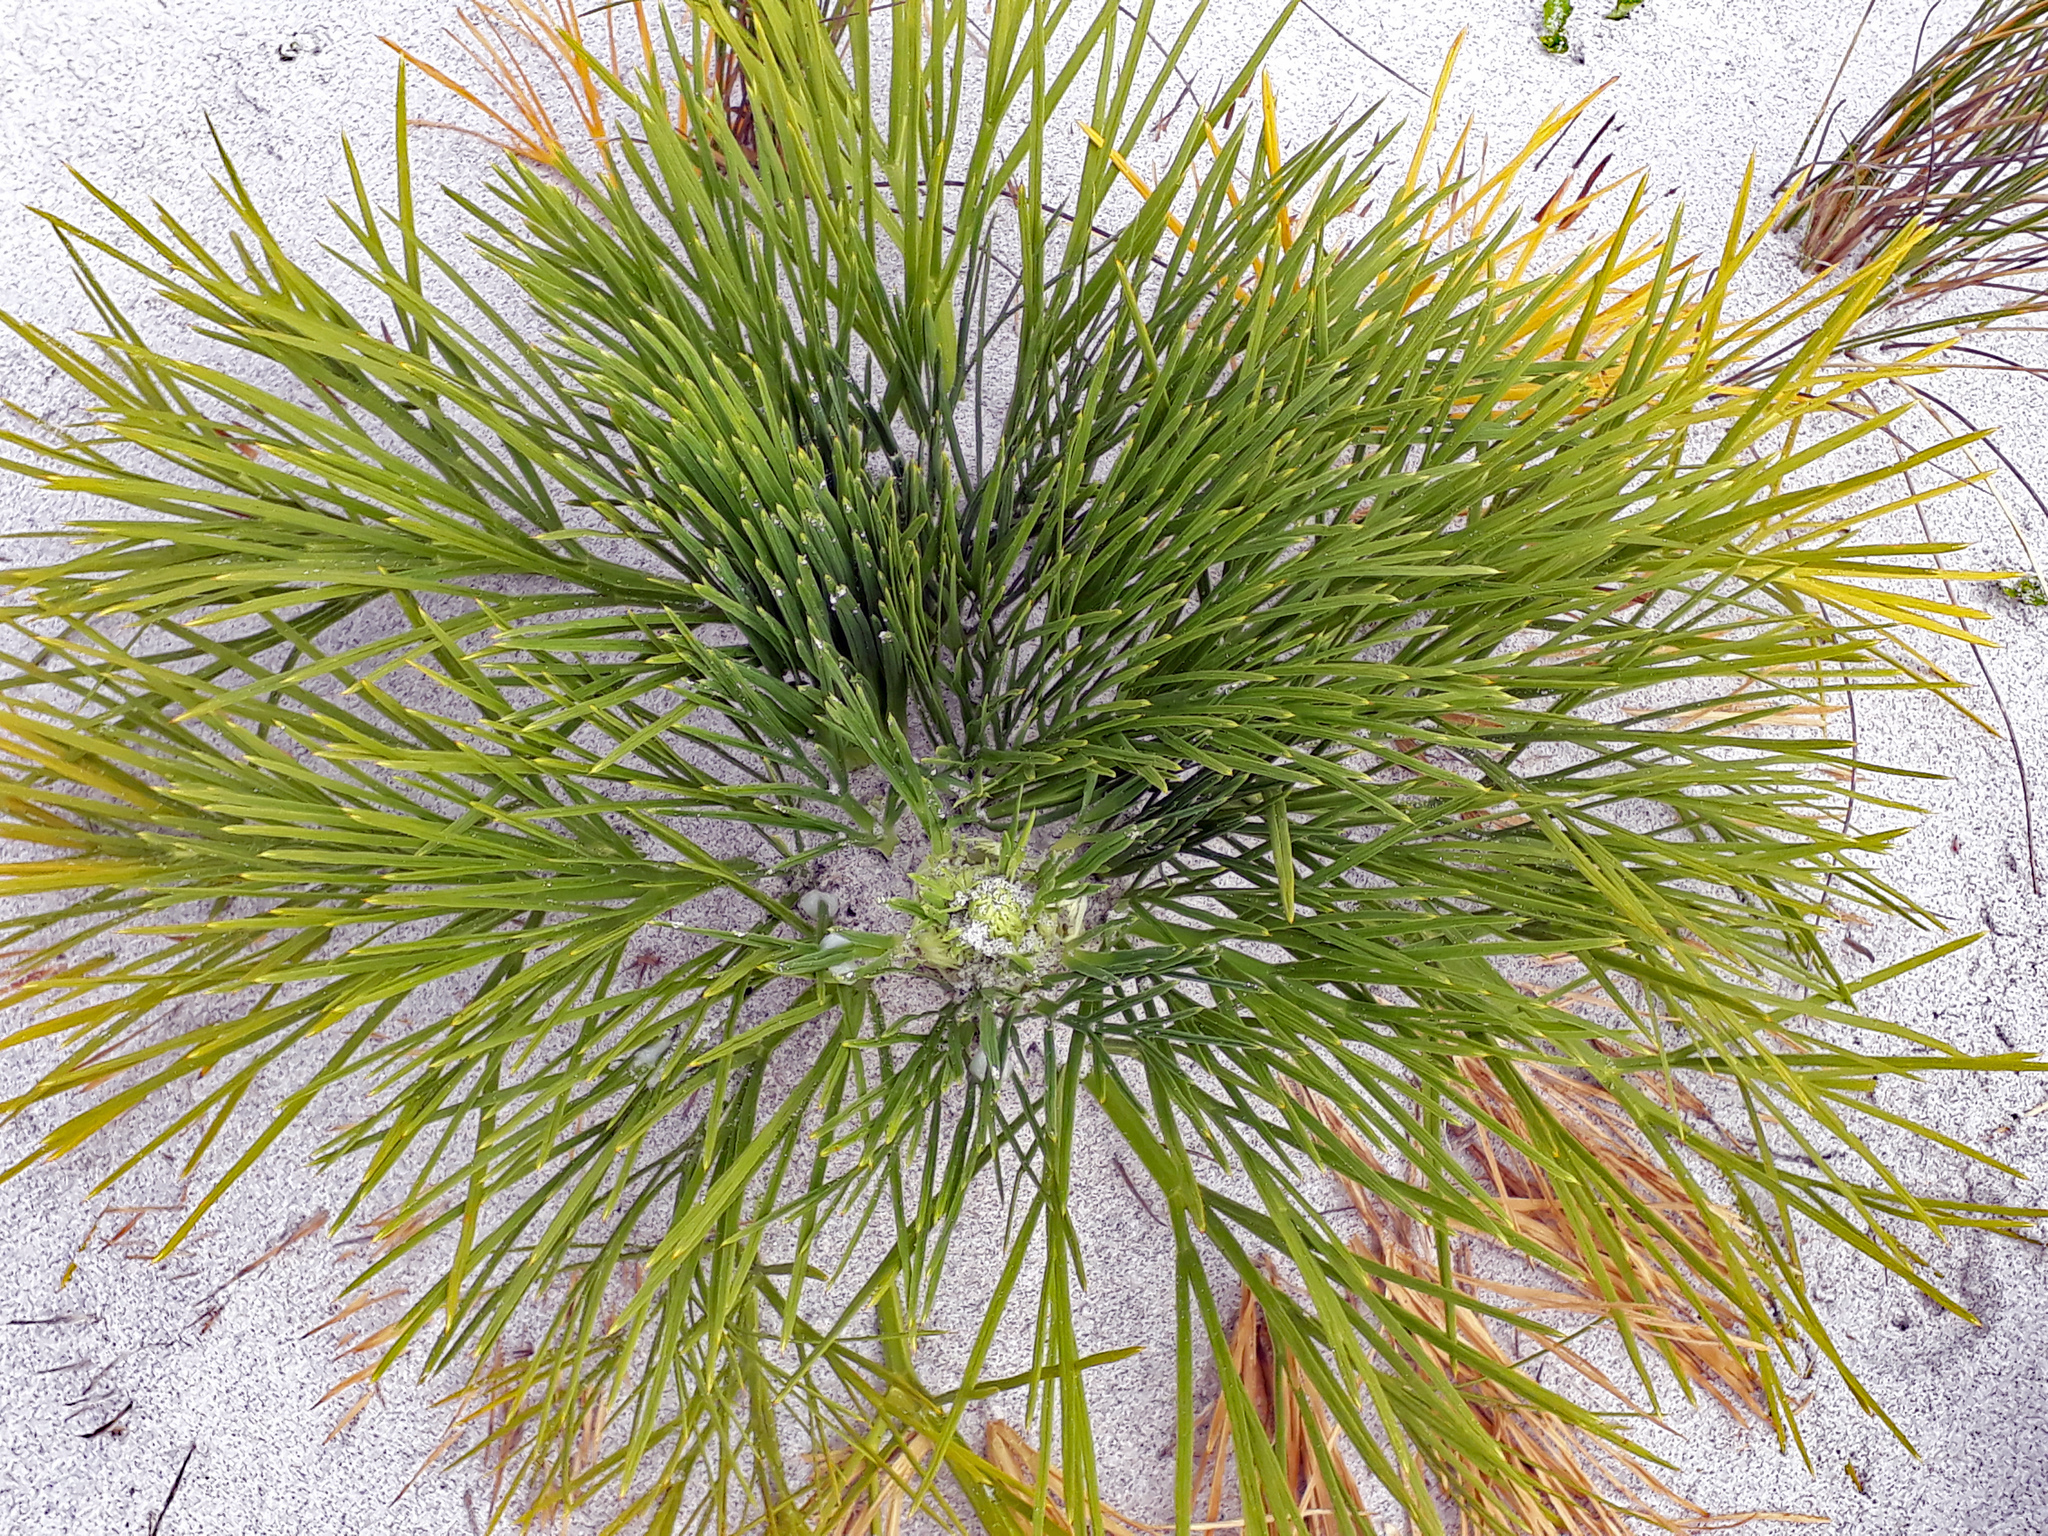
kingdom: Plantae
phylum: Tracheophyta
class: Magnoliopsida
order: Apiales
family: Apiaceae
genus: Aciphylla
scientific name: Aciphylla dieffenbachii
